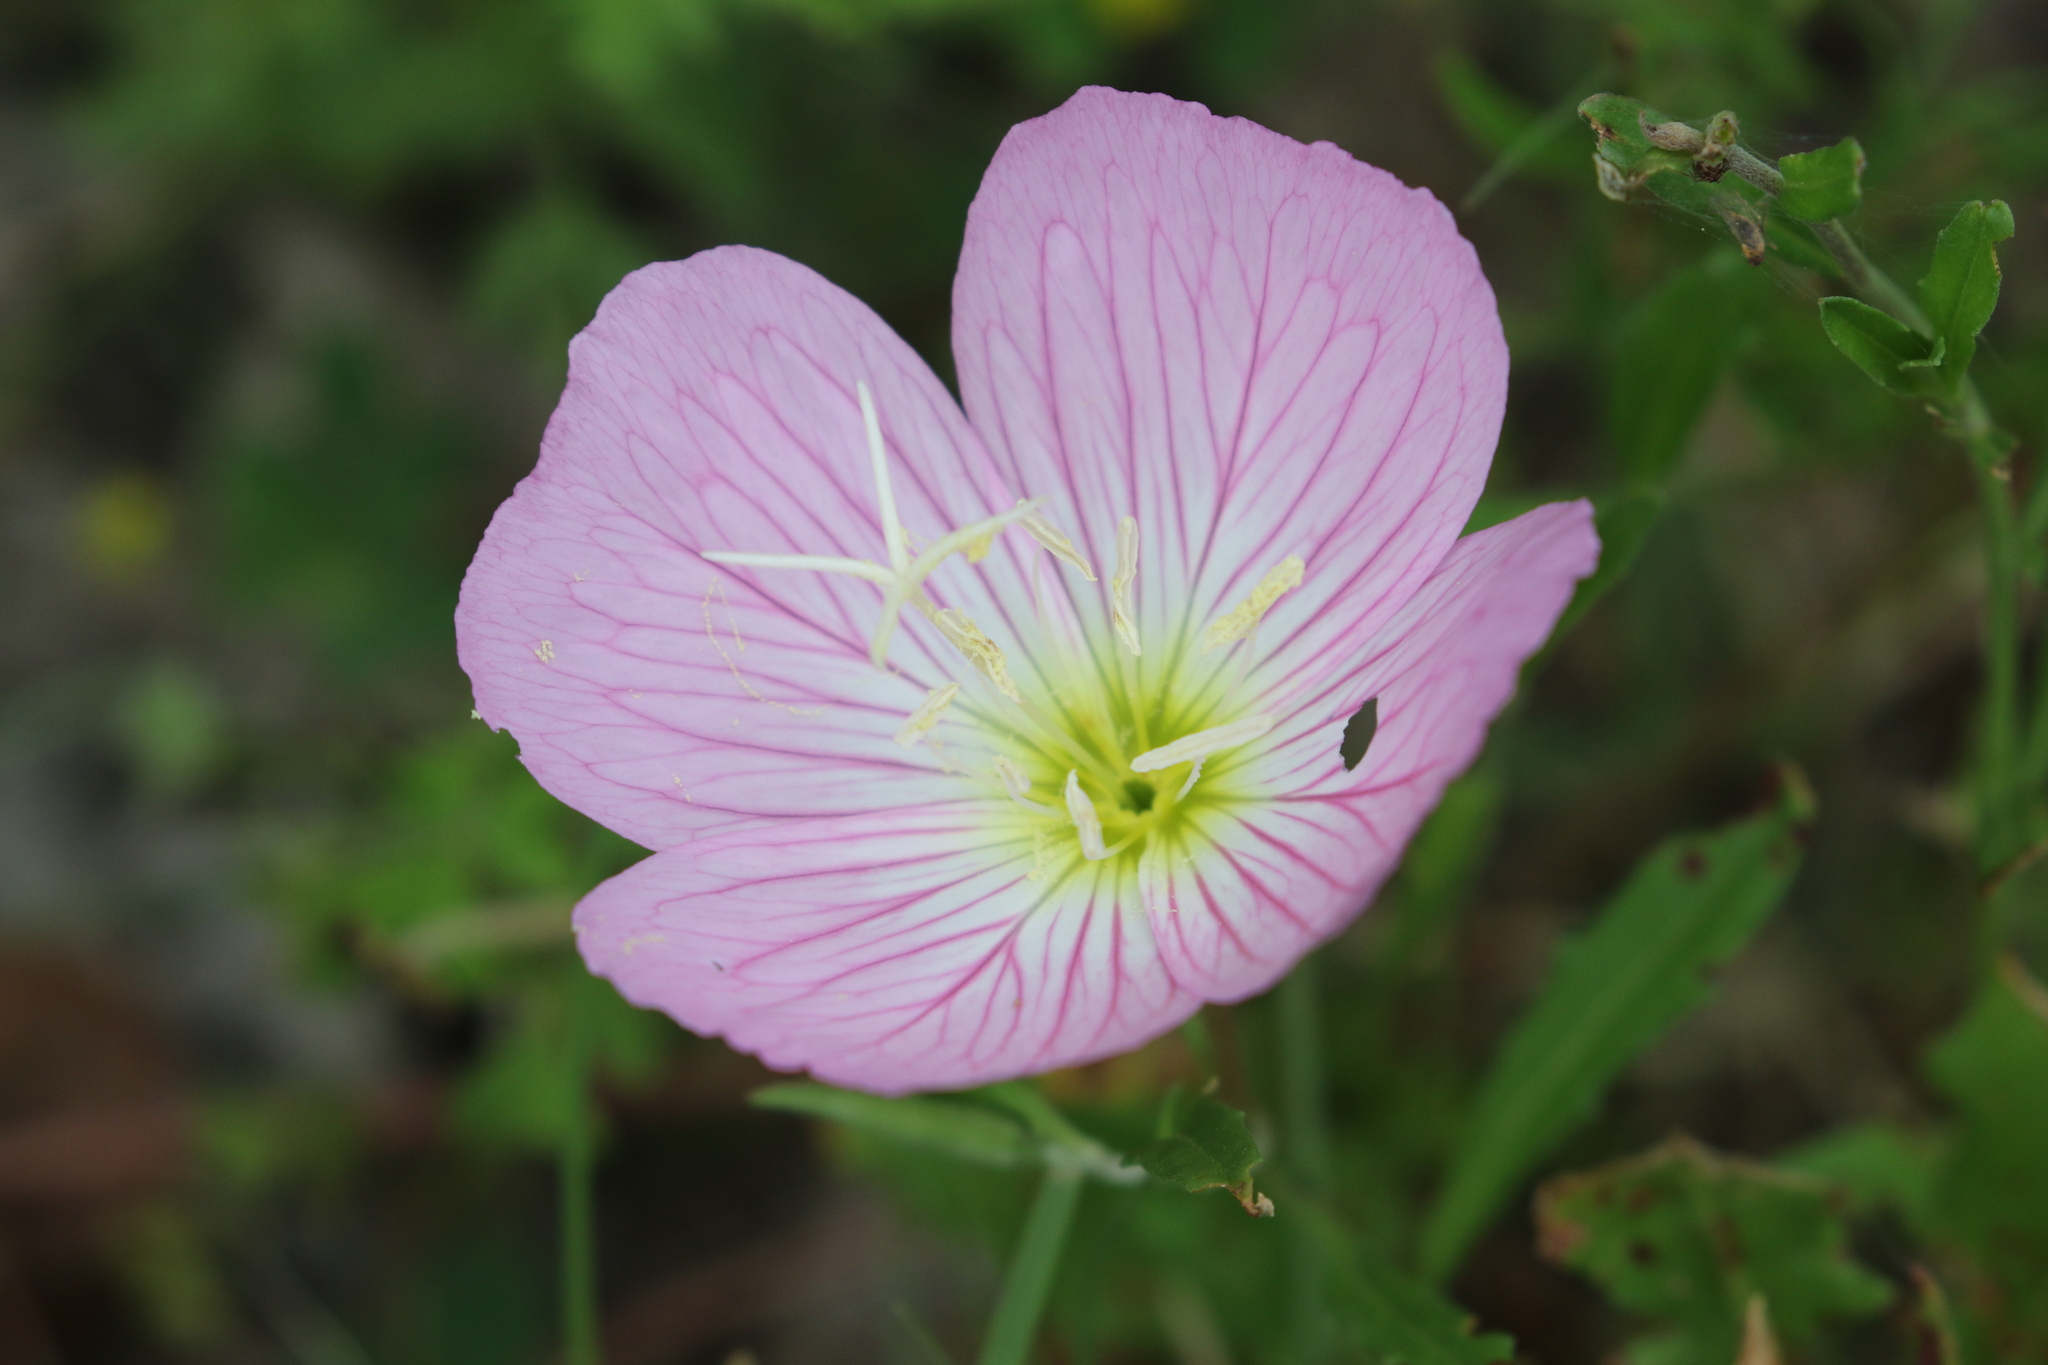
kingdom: Plantae
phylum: Tracheophyta
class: Magnoliopsida
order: Myrtales
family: Onagraceae
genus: Oenothera
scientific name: Oenothera speciosa
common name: White evening-primrose
